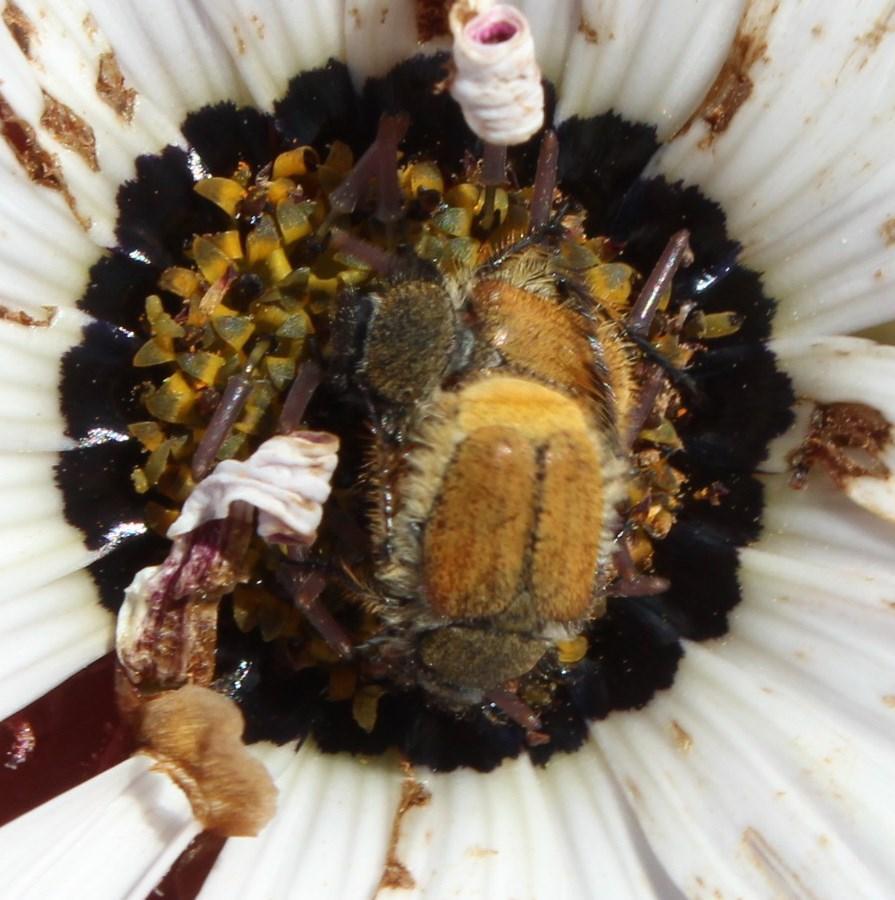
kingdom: Animalia
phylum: Arthropoda
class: Insecta
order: Coleoptera
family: Scarabaeidae
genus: Chasme
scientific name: Chasme jucunda
